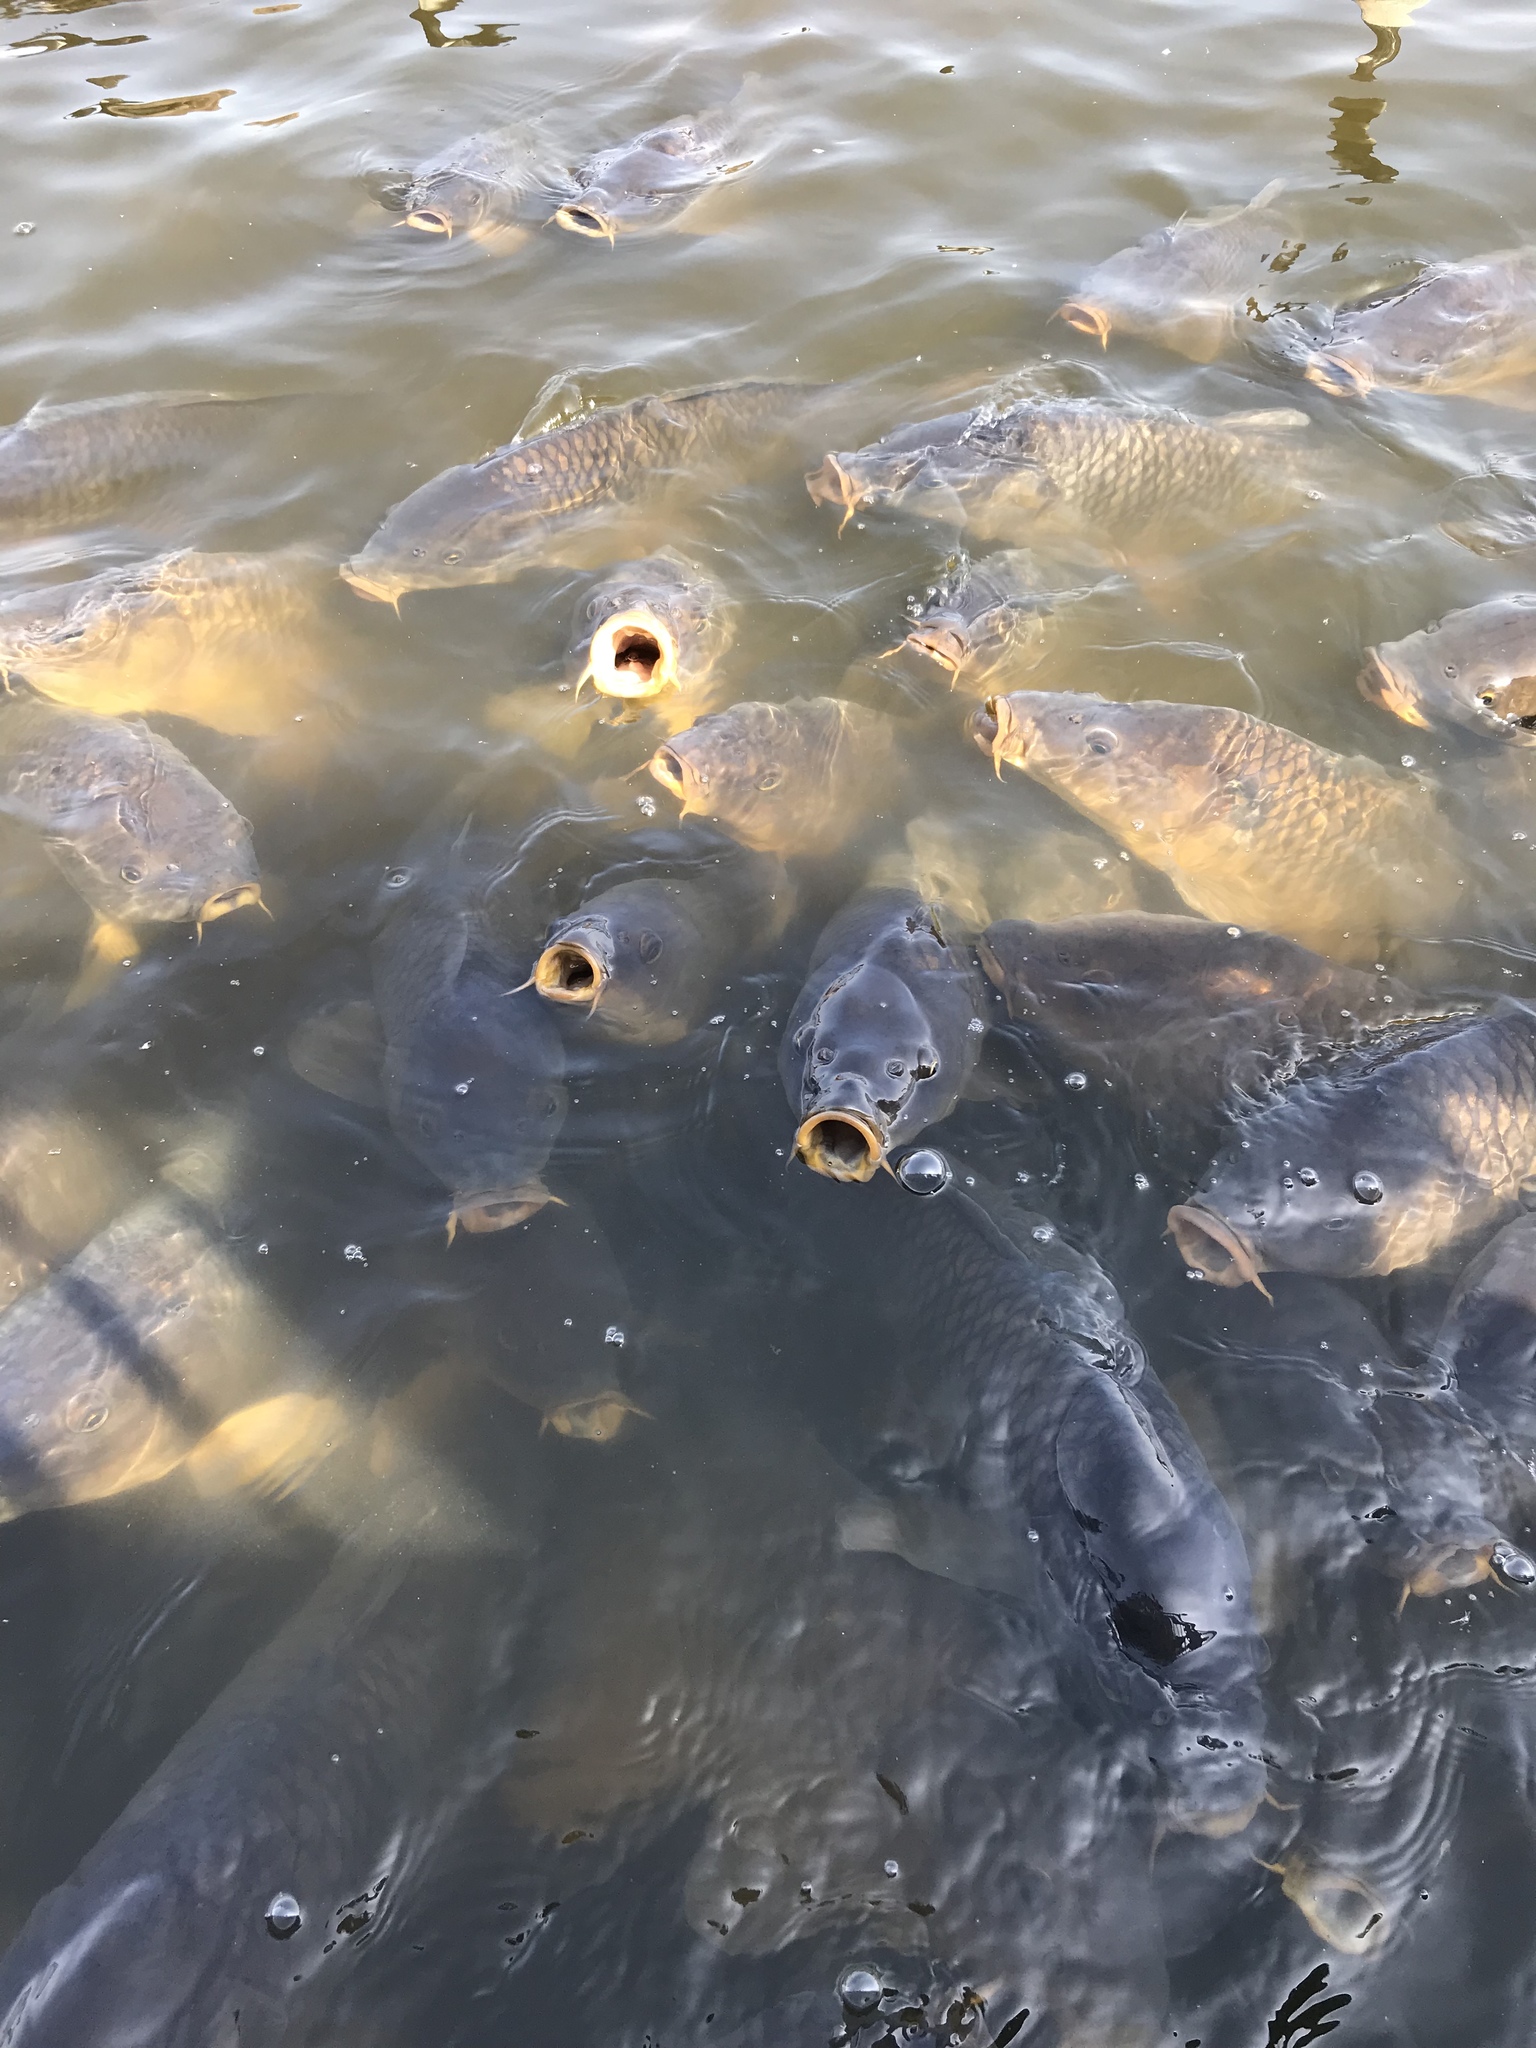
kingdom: Animalia
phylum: Chordata
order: Cypriniformes
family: Cyprinidae
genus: Cyprinus
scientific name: Cyprinus carpio
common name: Common carp
